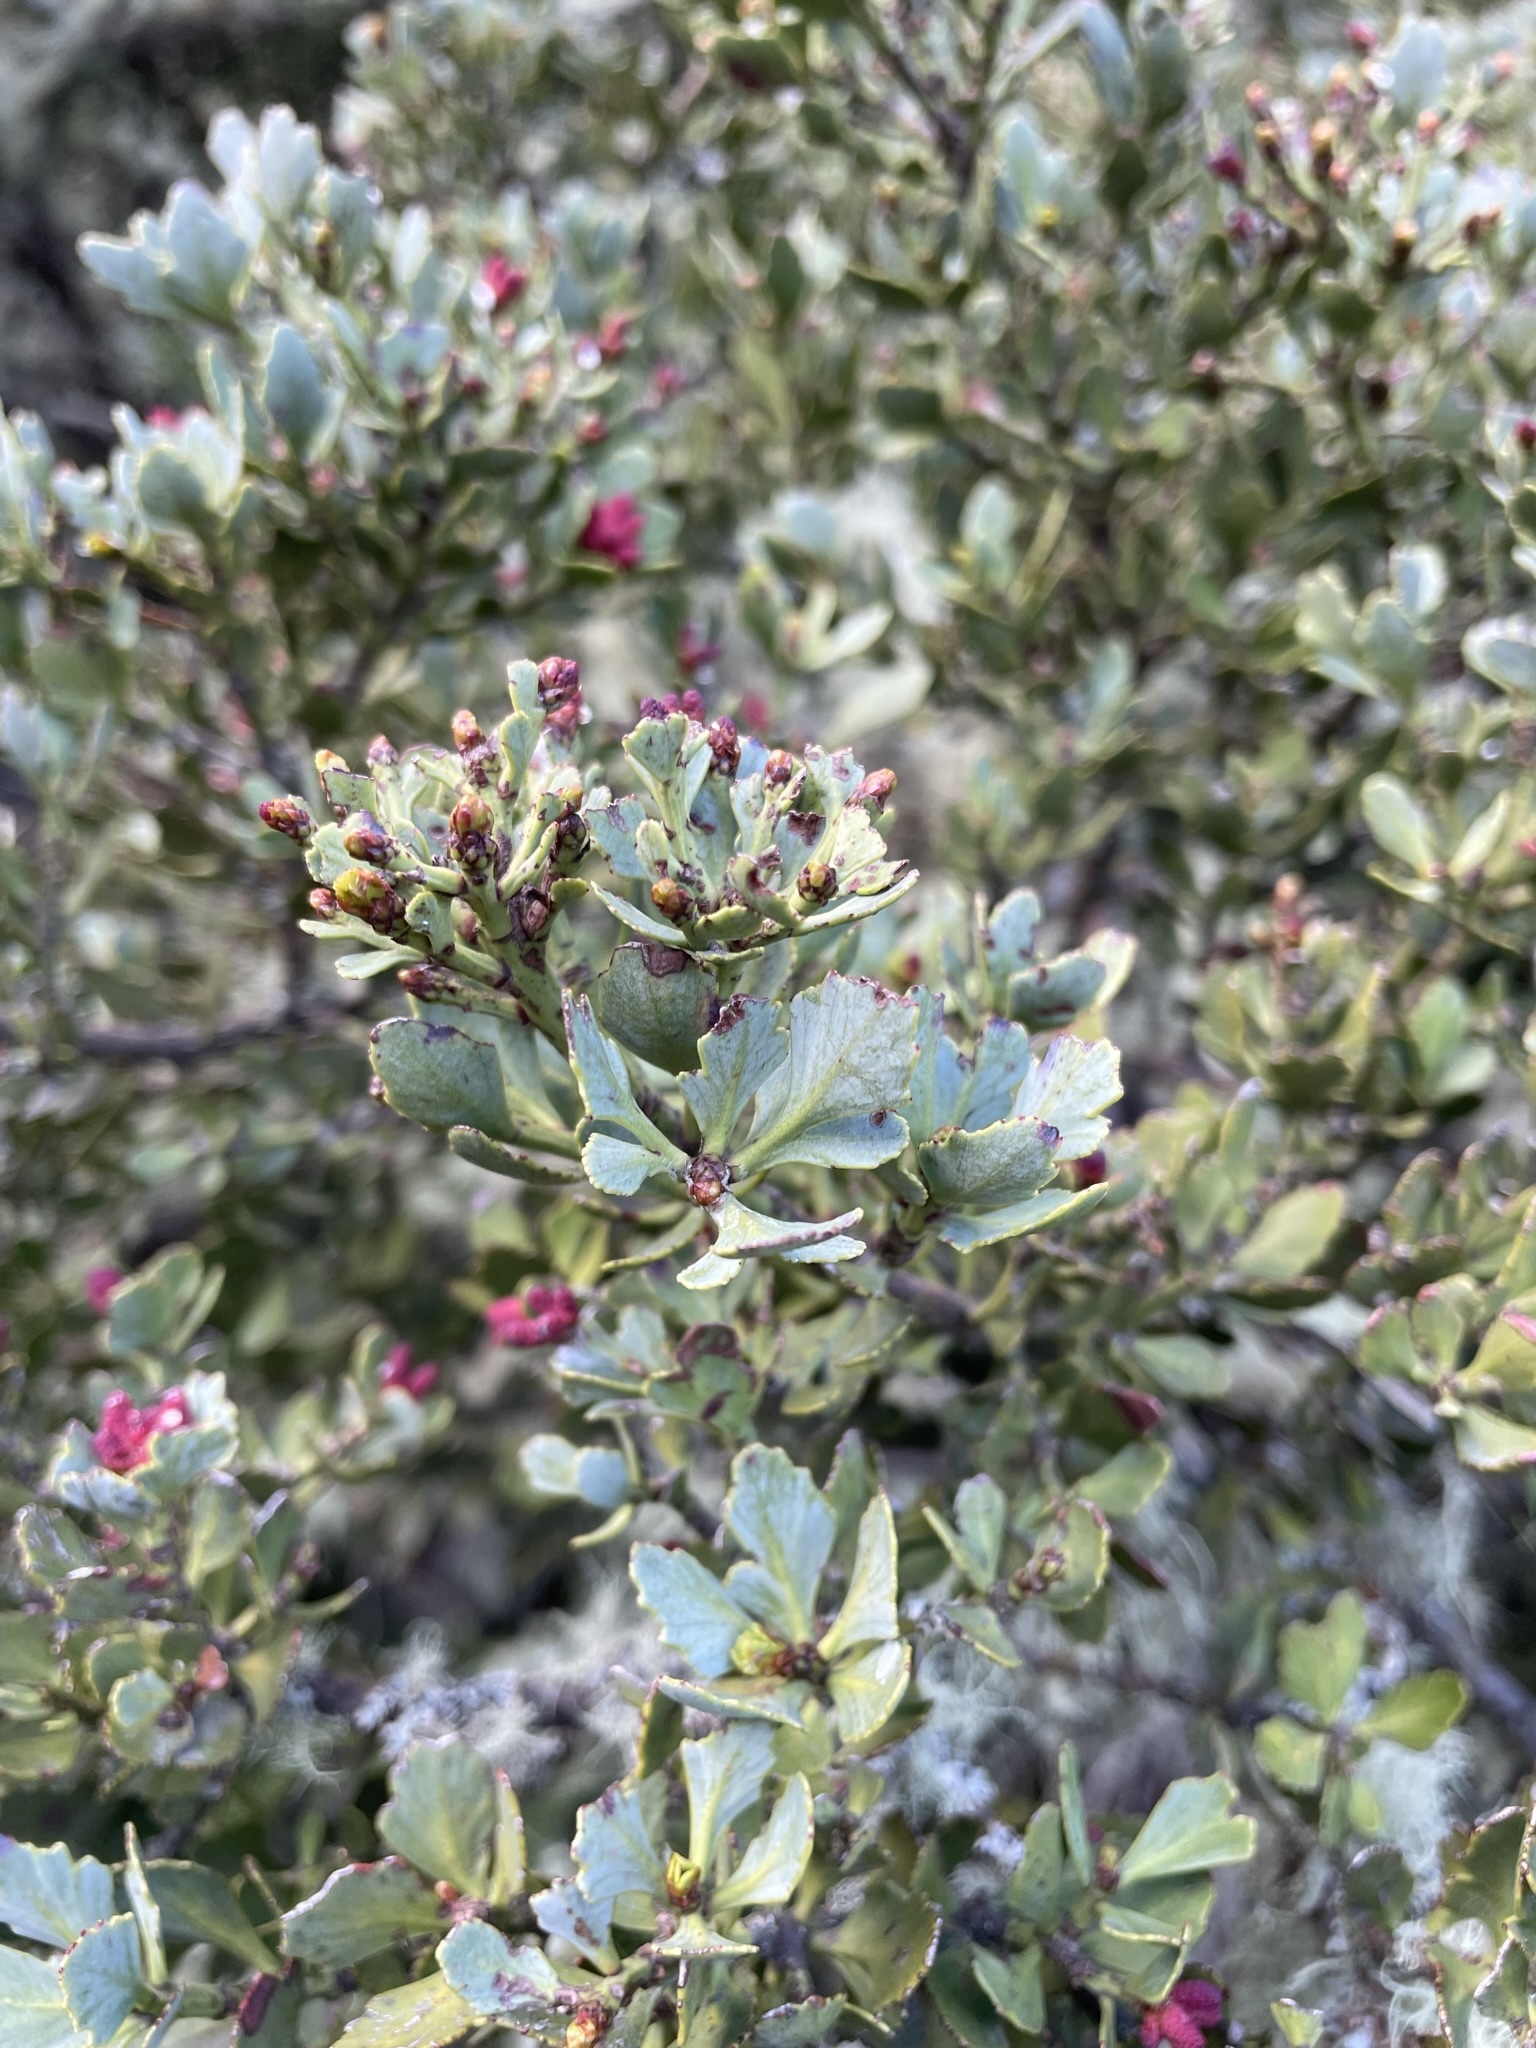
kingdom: Plantae
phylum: Tracheophyta
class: Pinopsida
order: Pinales
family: Phyllocladaceae
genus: Phyllocladus
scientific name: Phyllocladus trichomanoides
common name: Celery pine
